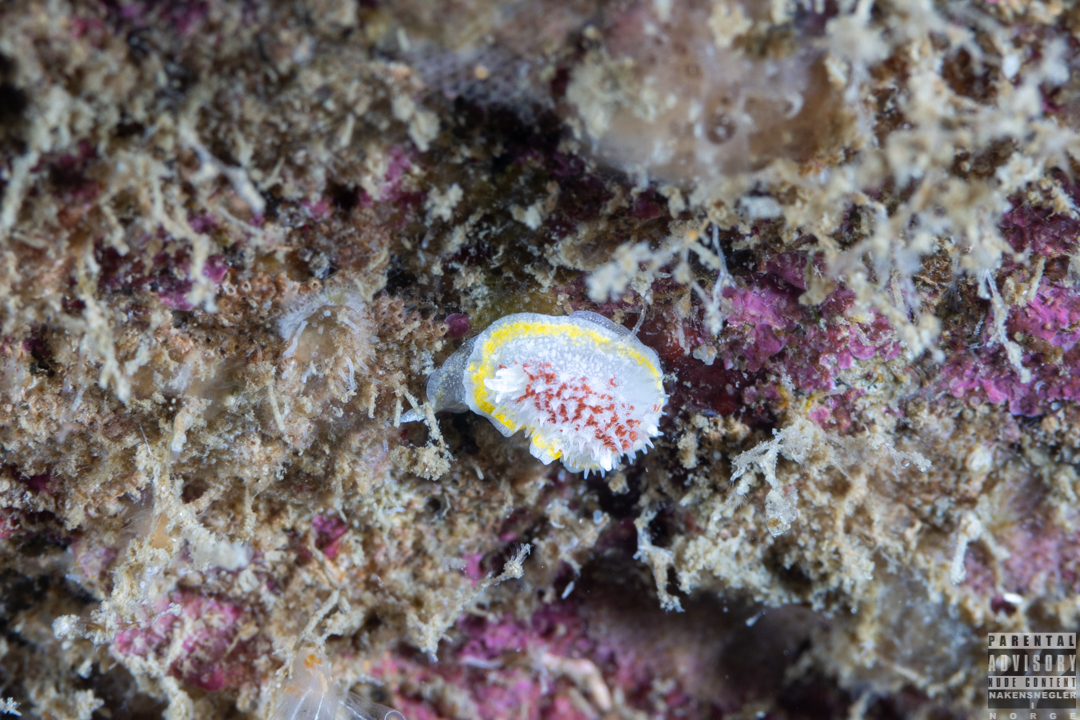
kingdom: Animalia
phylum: Mollusca
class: Gastropoda
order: Nudibranchia
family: Calycidorididae
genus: Diaphorodoris
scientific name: Diaphorodoris luteocincta
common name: Fried egg nudibranch
